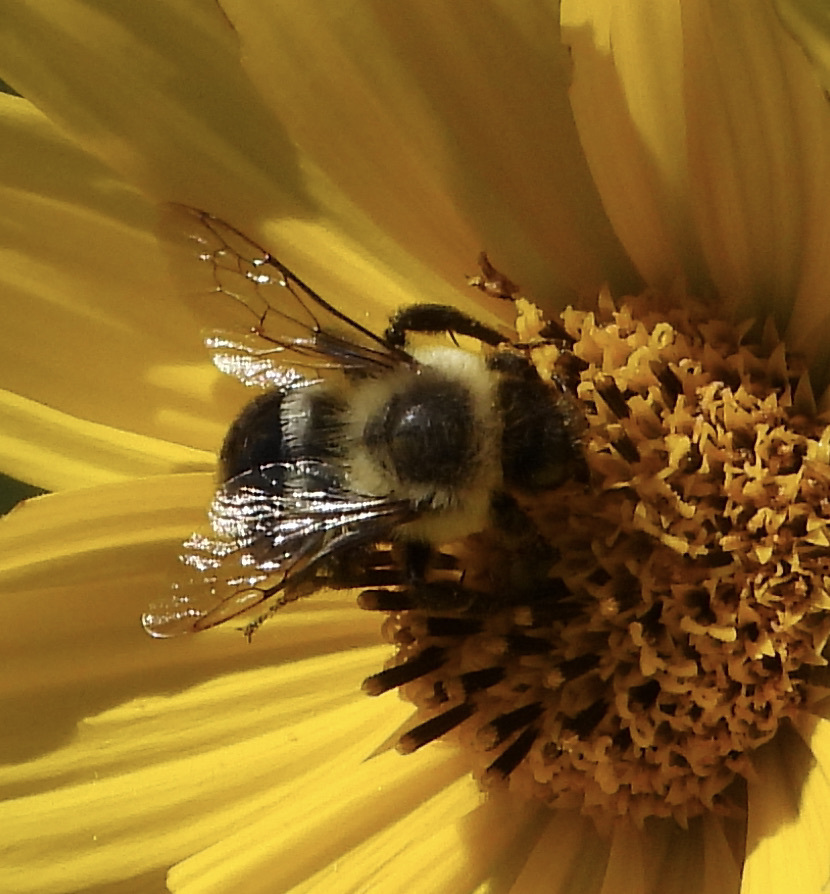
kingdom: Animalia
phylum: Arthropoda
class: Insecta
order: Hymenoptera
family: Apidae
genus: Bombus
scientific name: Bombus impatiens
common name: Common eastern bumble bee
